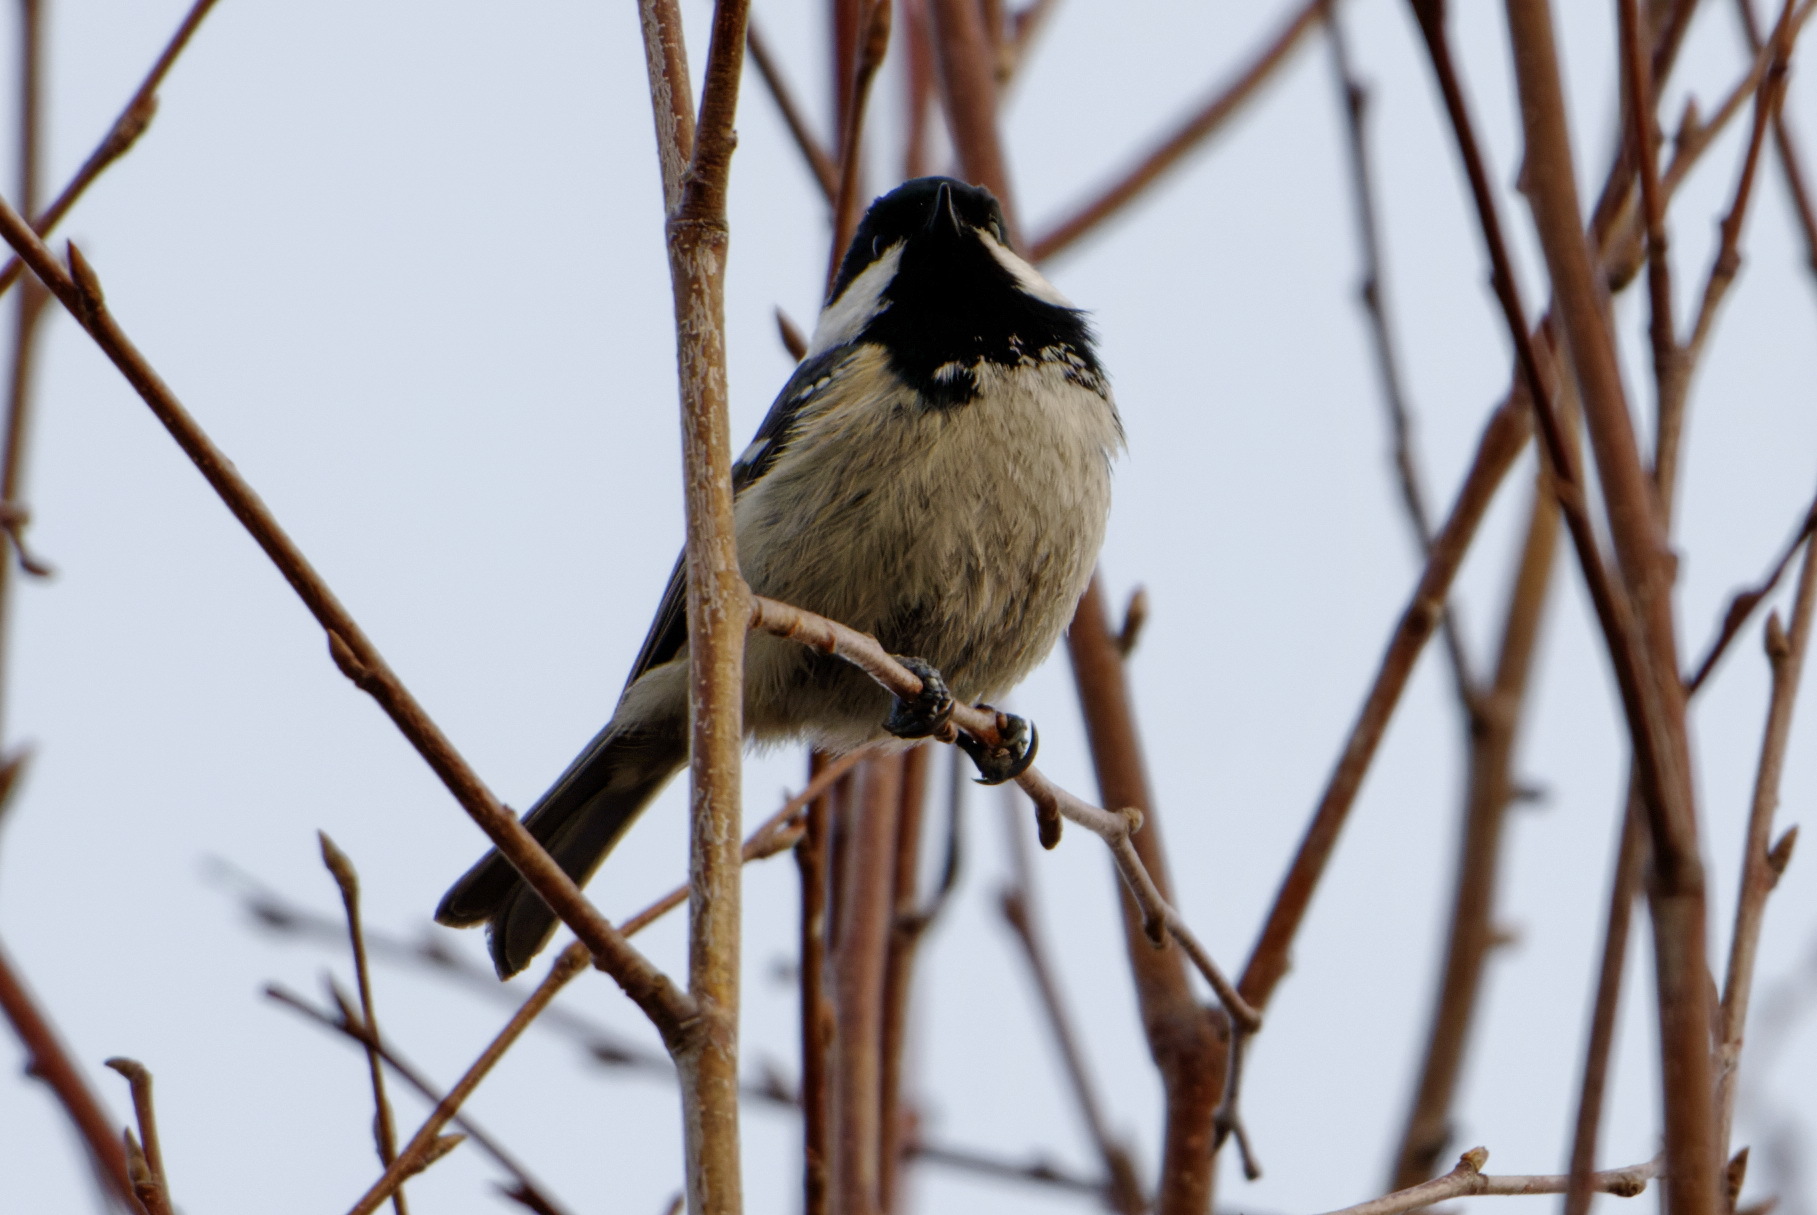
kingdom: Animalia
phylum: Chordata
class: Aves
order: Passeriformes
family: Paridae
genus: Periparus
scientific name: Periparus ater
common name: Coal tit
